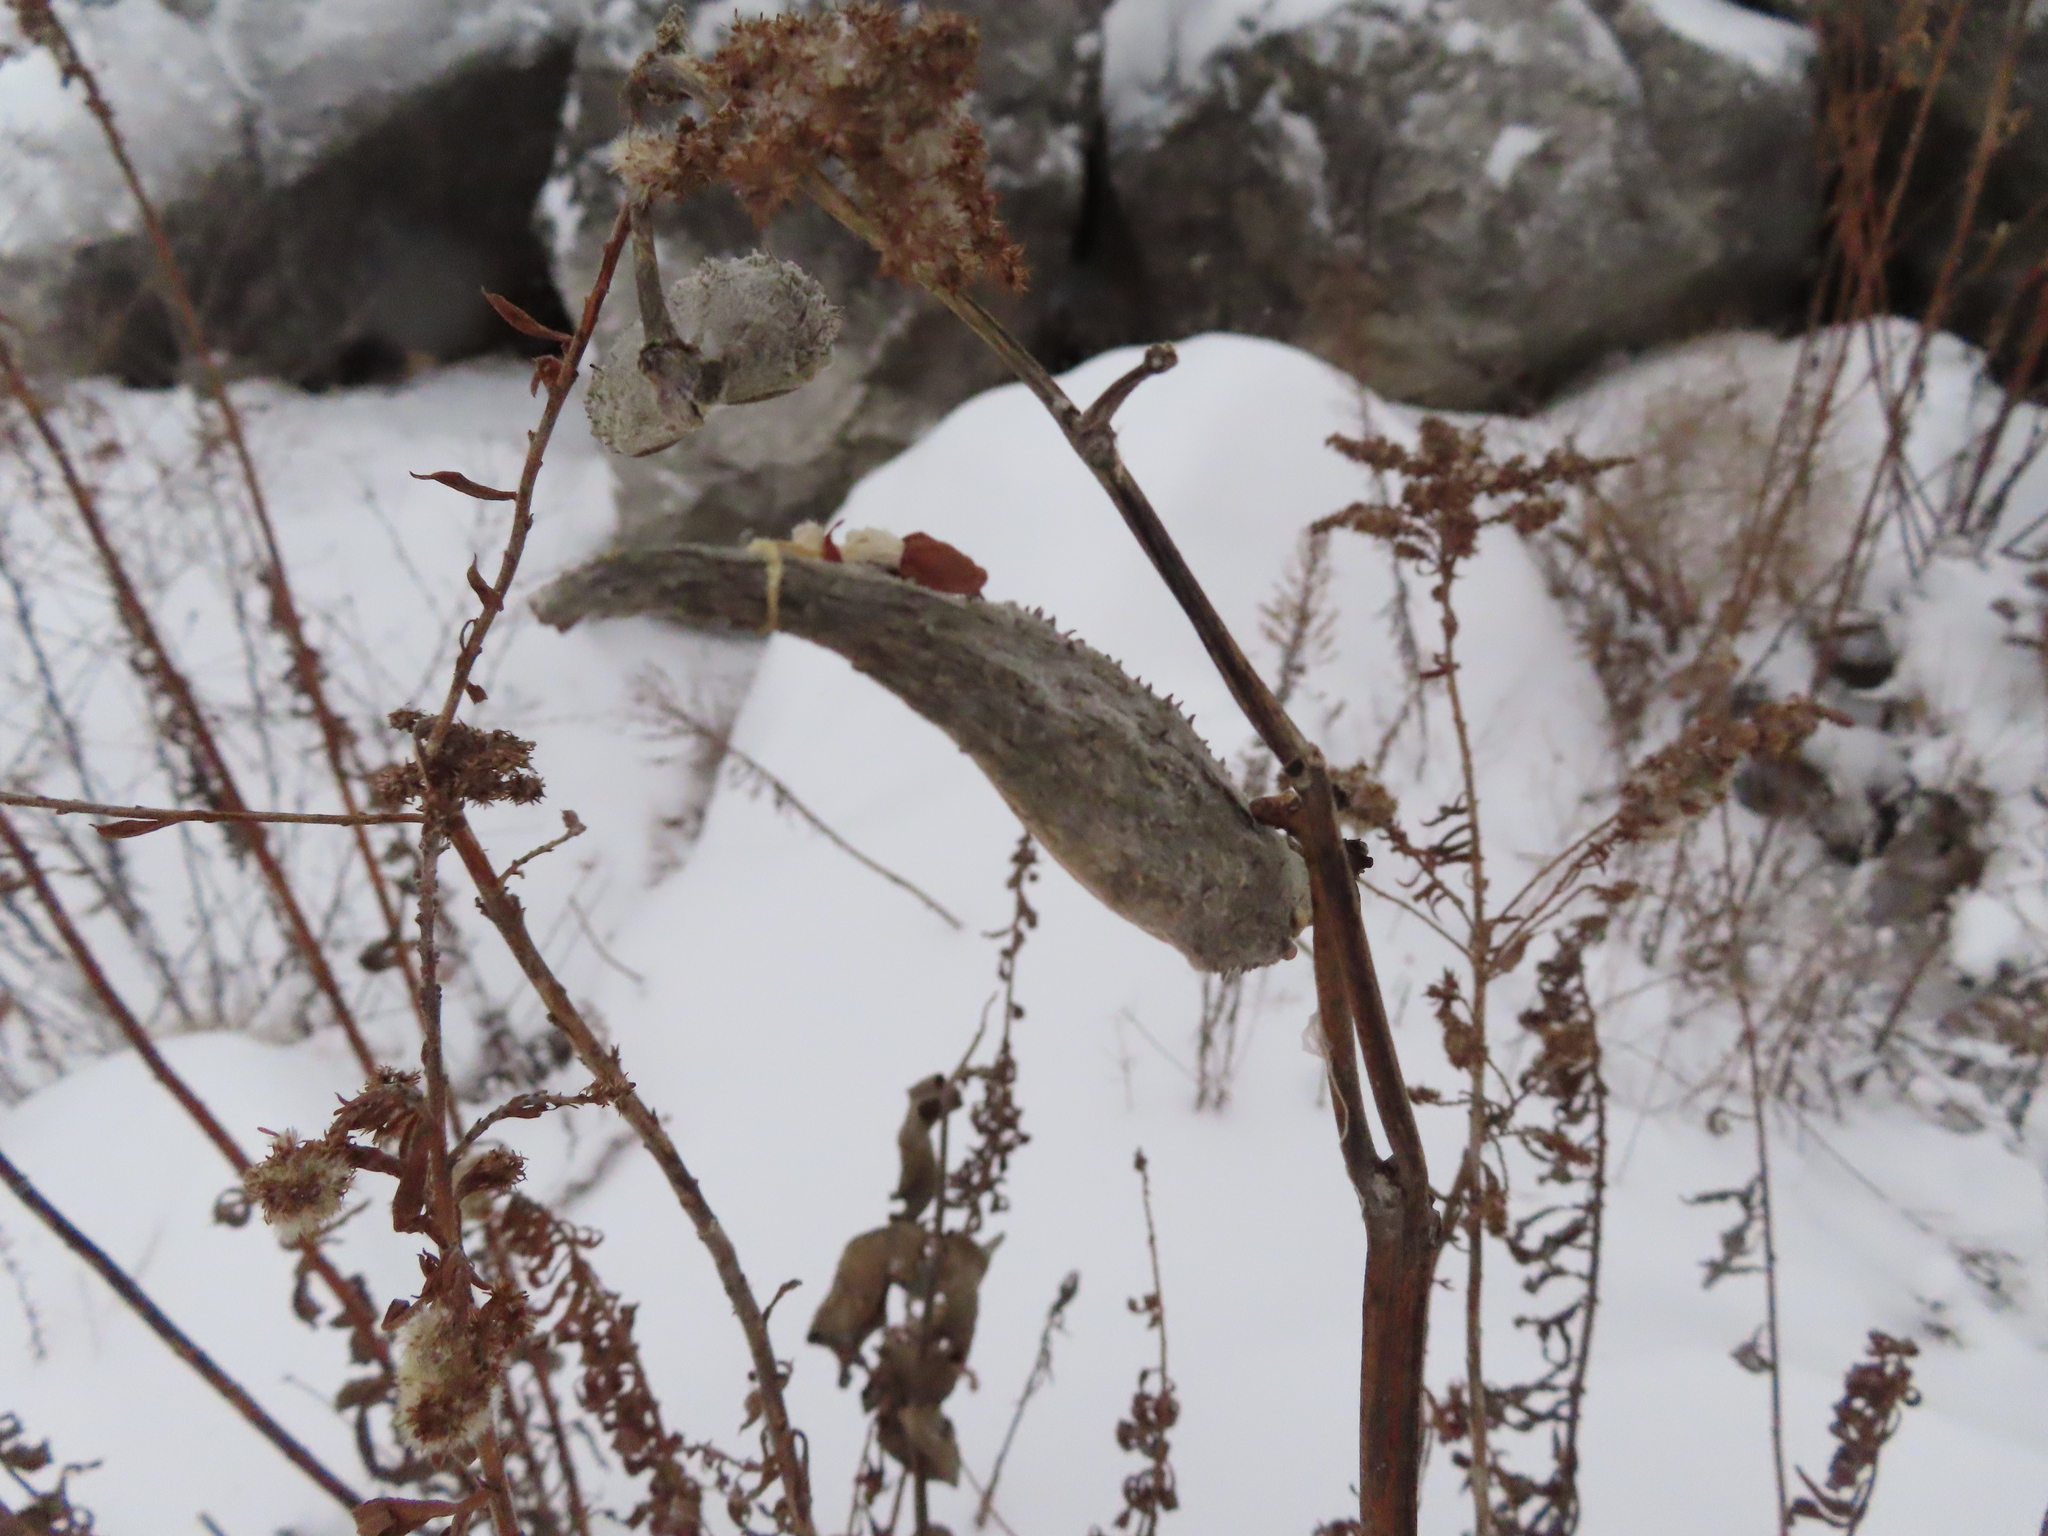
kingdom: Plantae
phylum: Tracheophyta
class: Magnoliopsida
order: Gentianales
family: Apocynaceae
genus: Asclepias
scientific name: Asclepias syriaca
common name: Common milkweed
